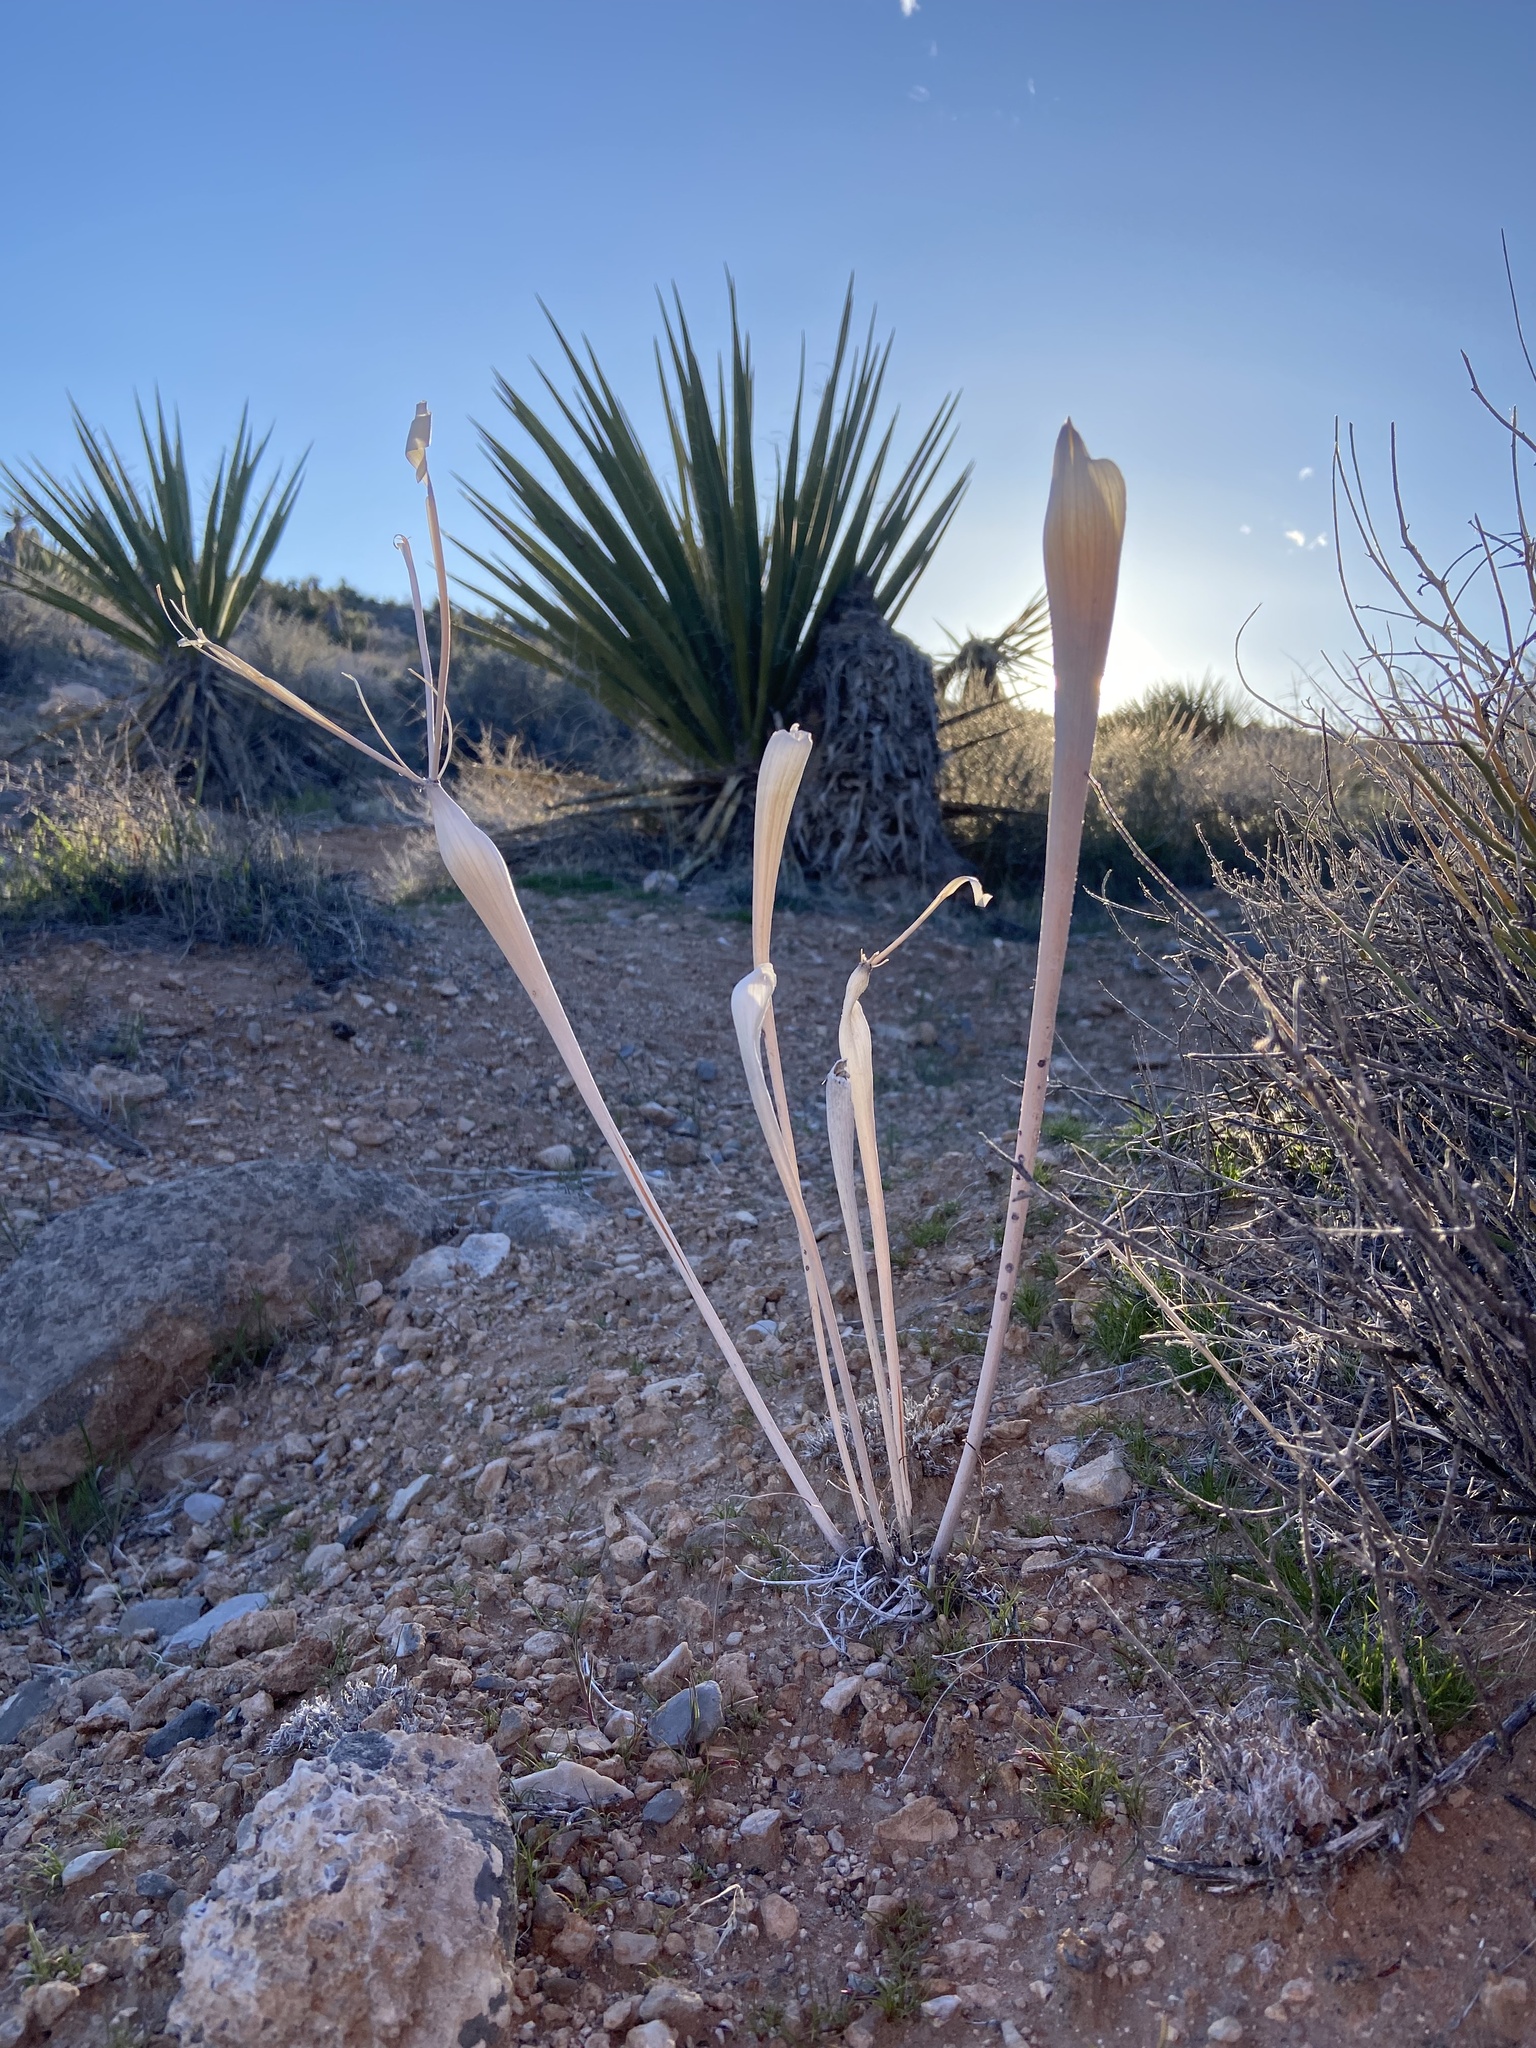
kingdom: Plantae
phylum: Tracheophyta
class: Magnoliopsida
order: Caryophyllales
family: Polygonaceae
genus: Eriogonum
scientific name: Eriogonum inflatum
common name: Desert trumpet
